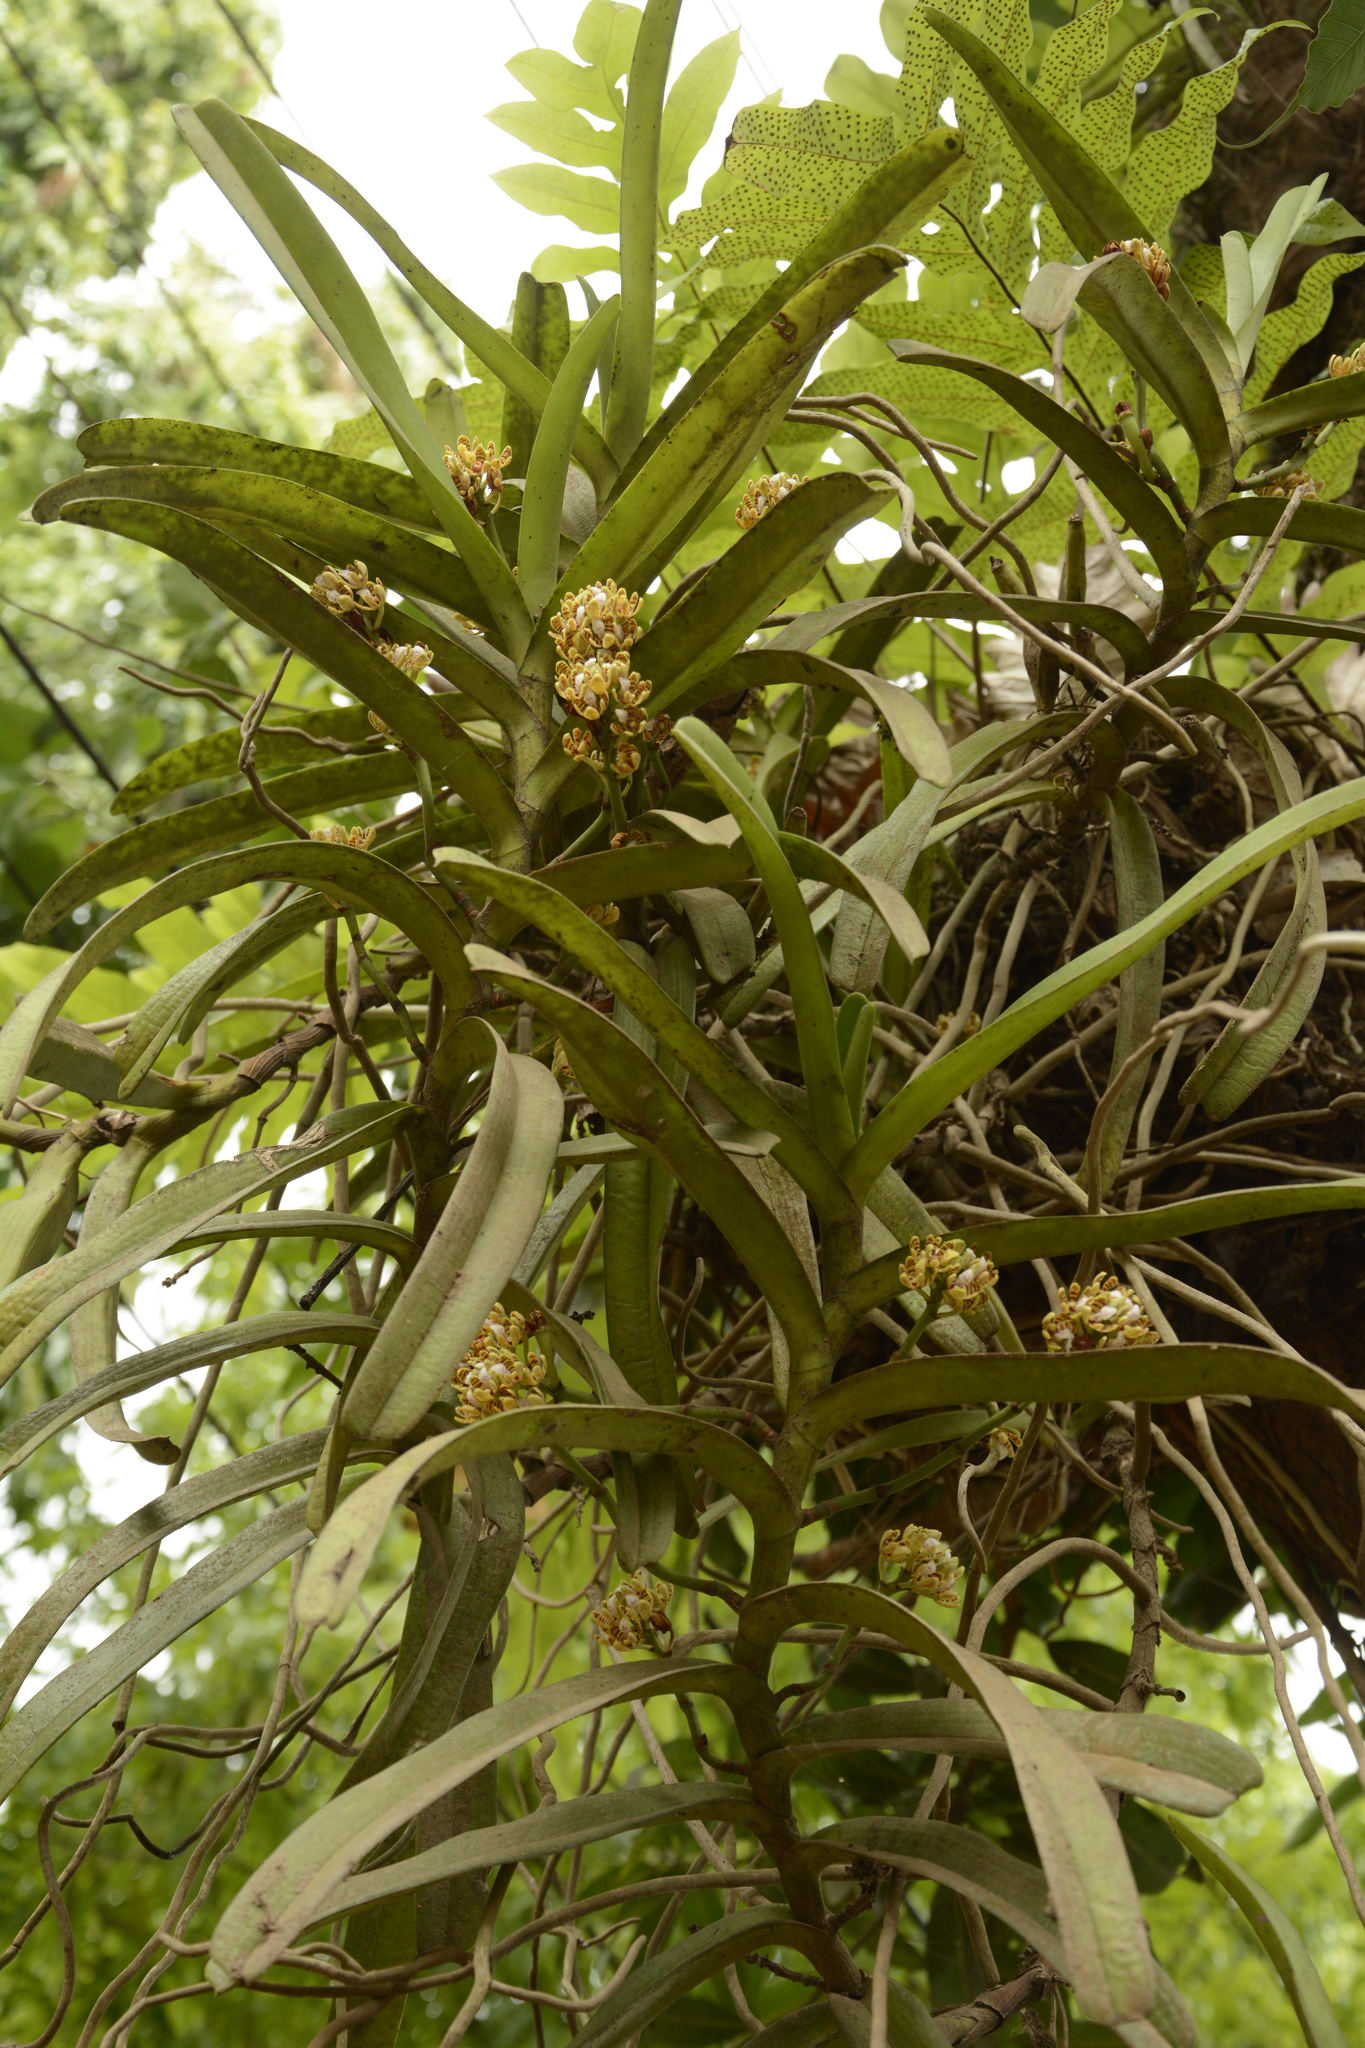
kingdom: Plantae
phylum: Tracheophyta
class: Liliopsida
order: Asparagales
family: Orchidaceae
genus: Acampe
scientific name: Acampe praemorsa
